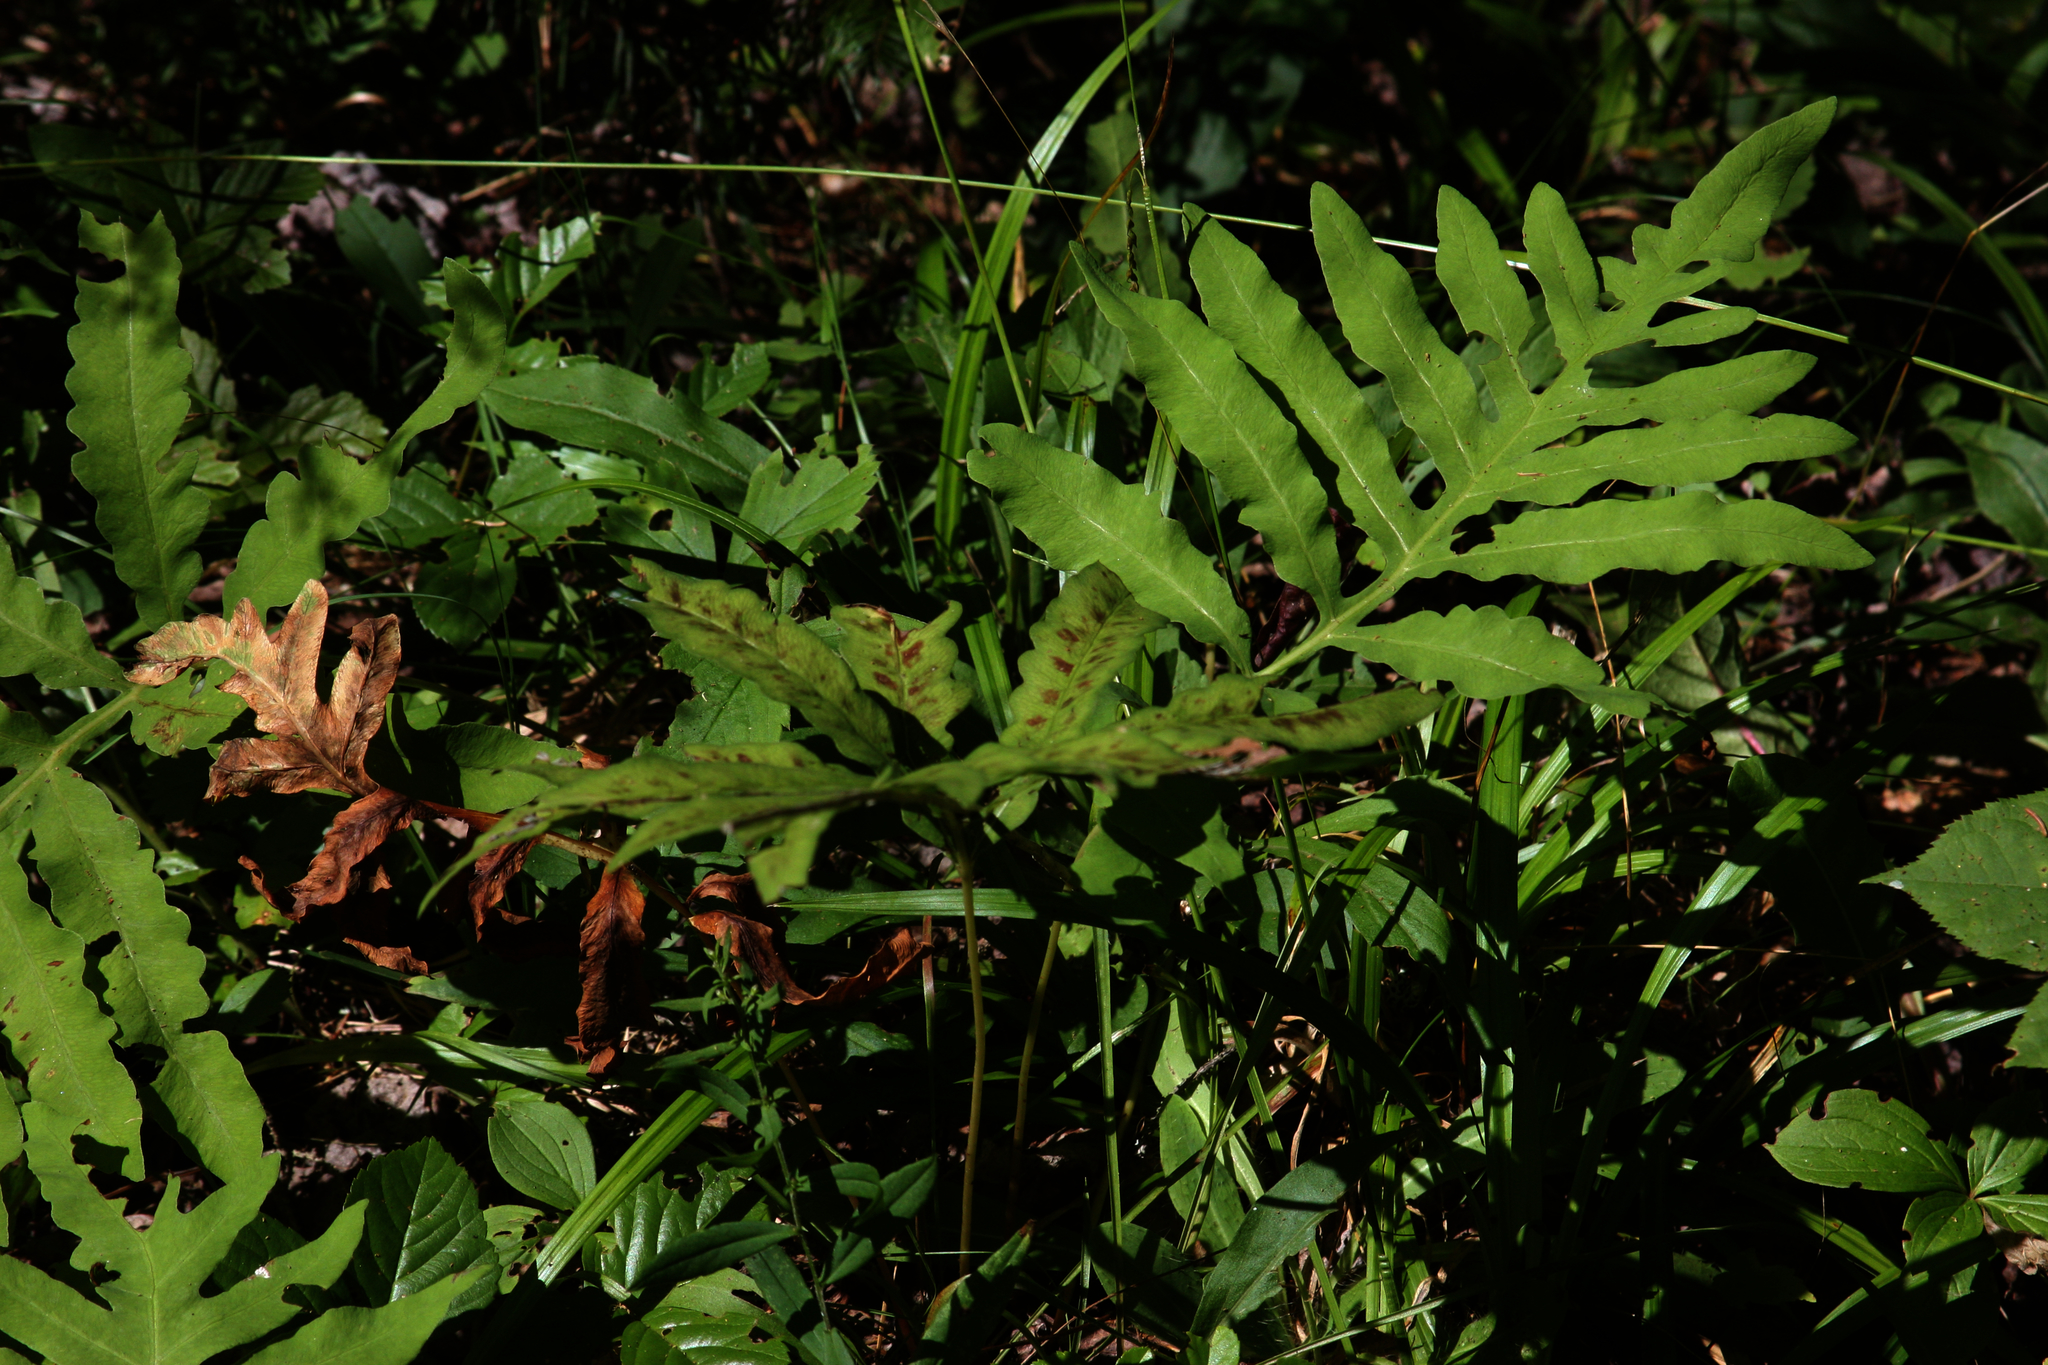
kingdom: Plantae
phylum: Tracheophyta
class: Polypodiopsida
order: Polypodiales
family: Onocleaceae
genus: Onoclea
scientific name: Onoclea sensibilis
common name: Sensitive fern
